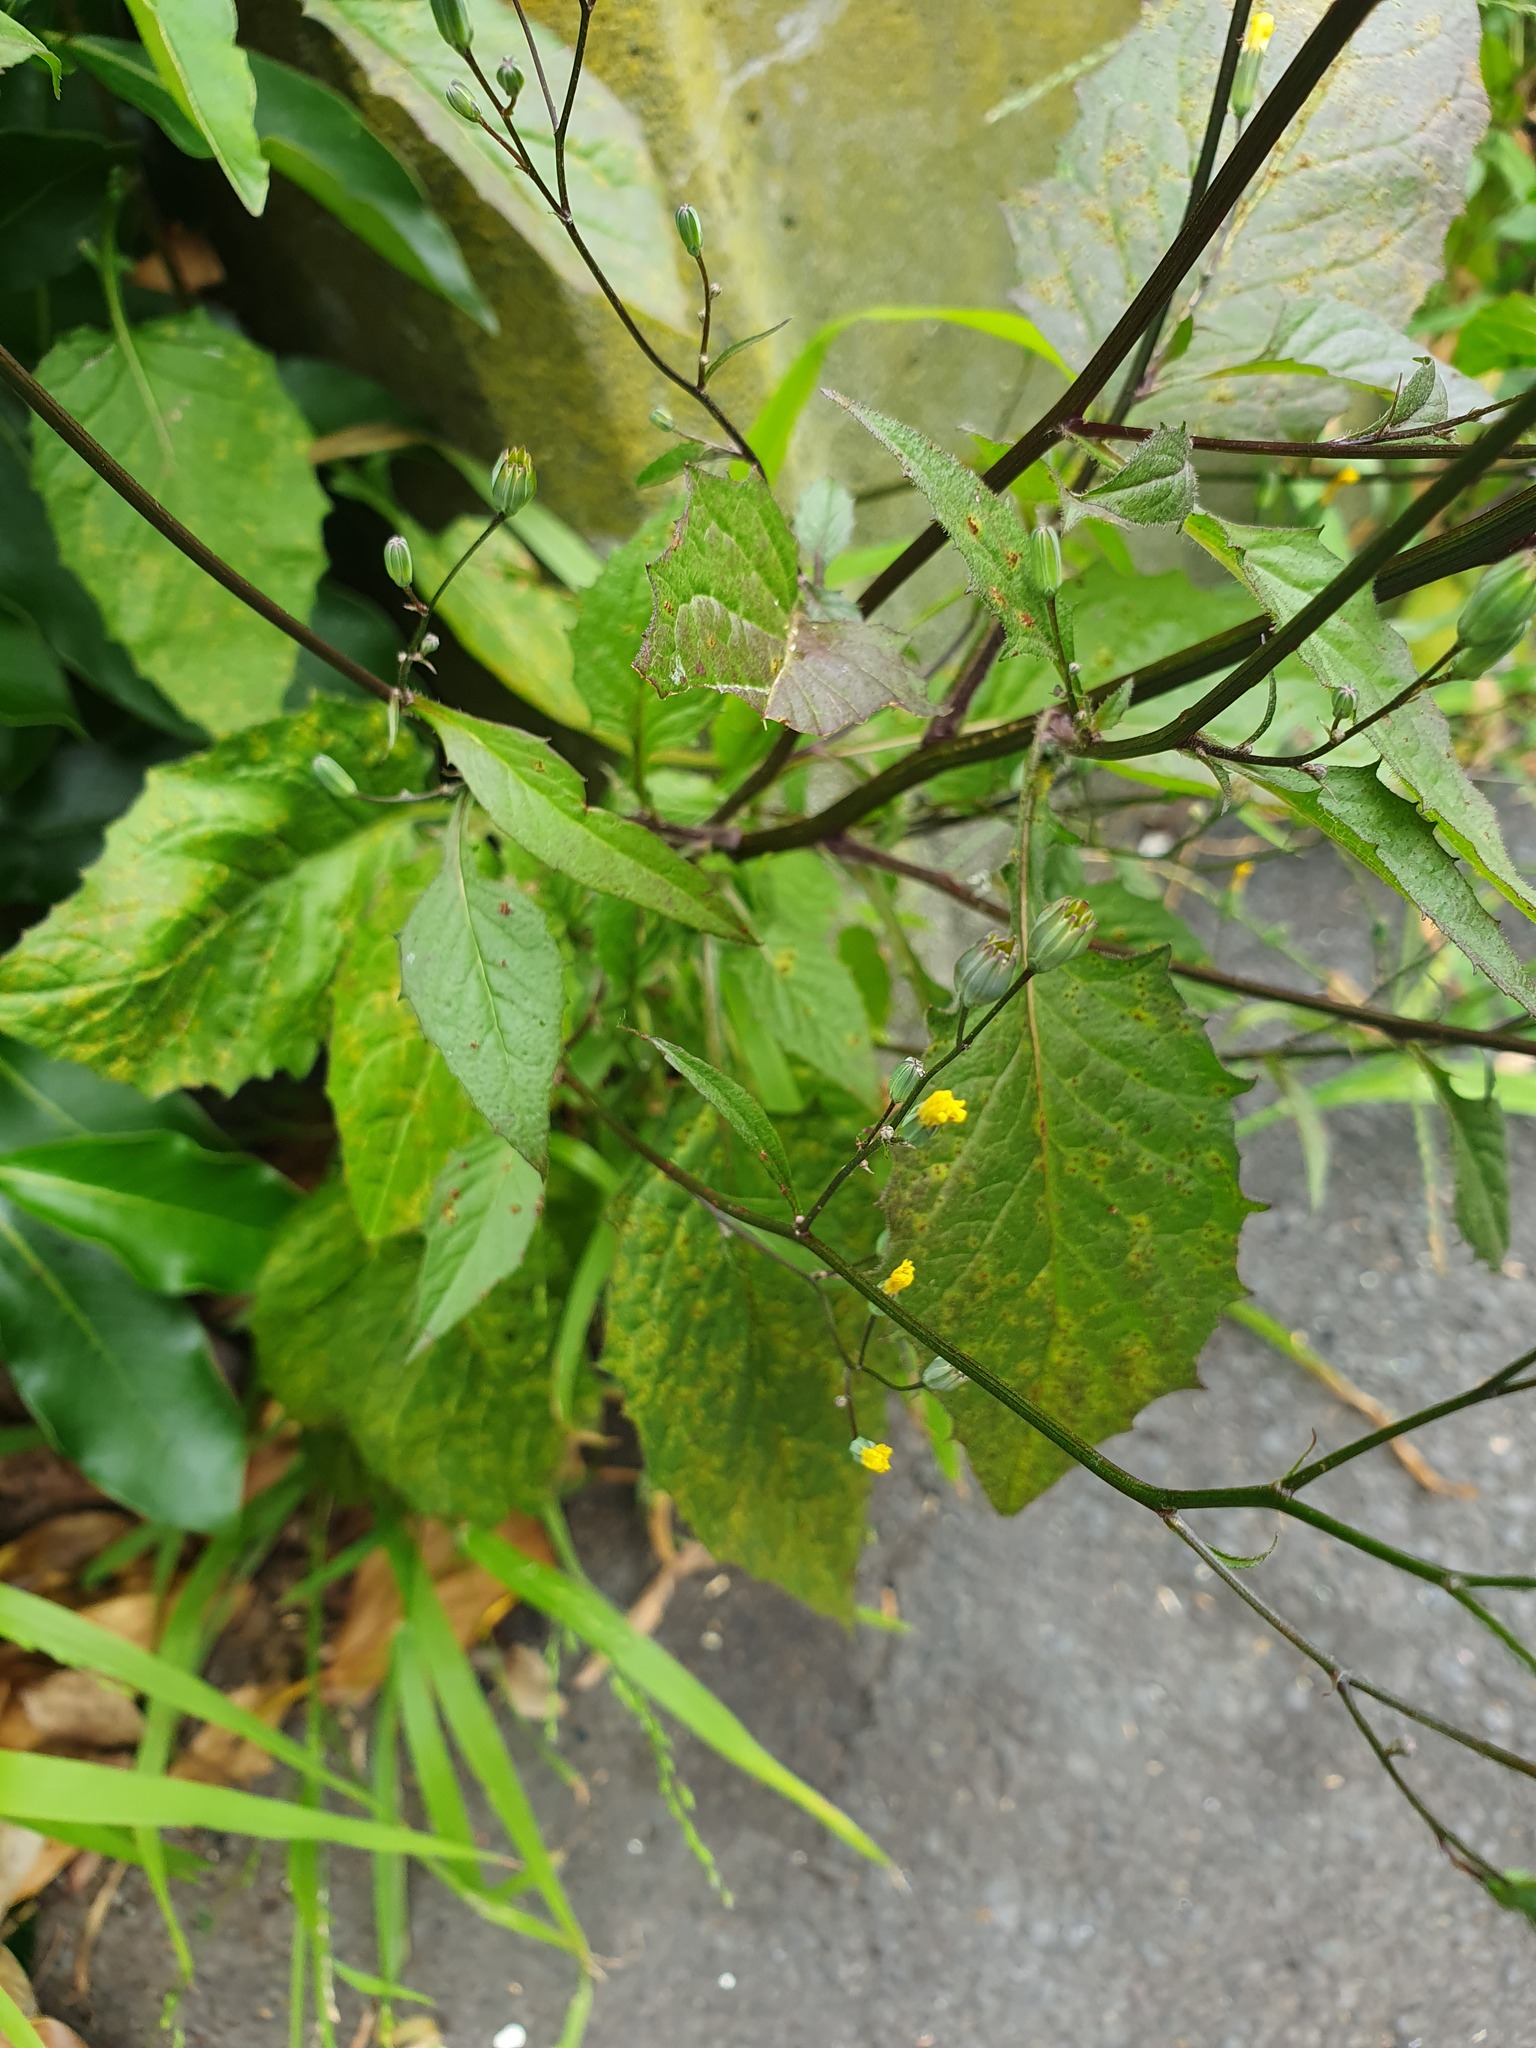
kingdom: Plantae
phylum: Tracheophyta
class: Magnoliopsida
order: Asterales
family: Asteraceae
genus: Lapsana
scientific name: Lapsana communis
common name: Nipplewort
